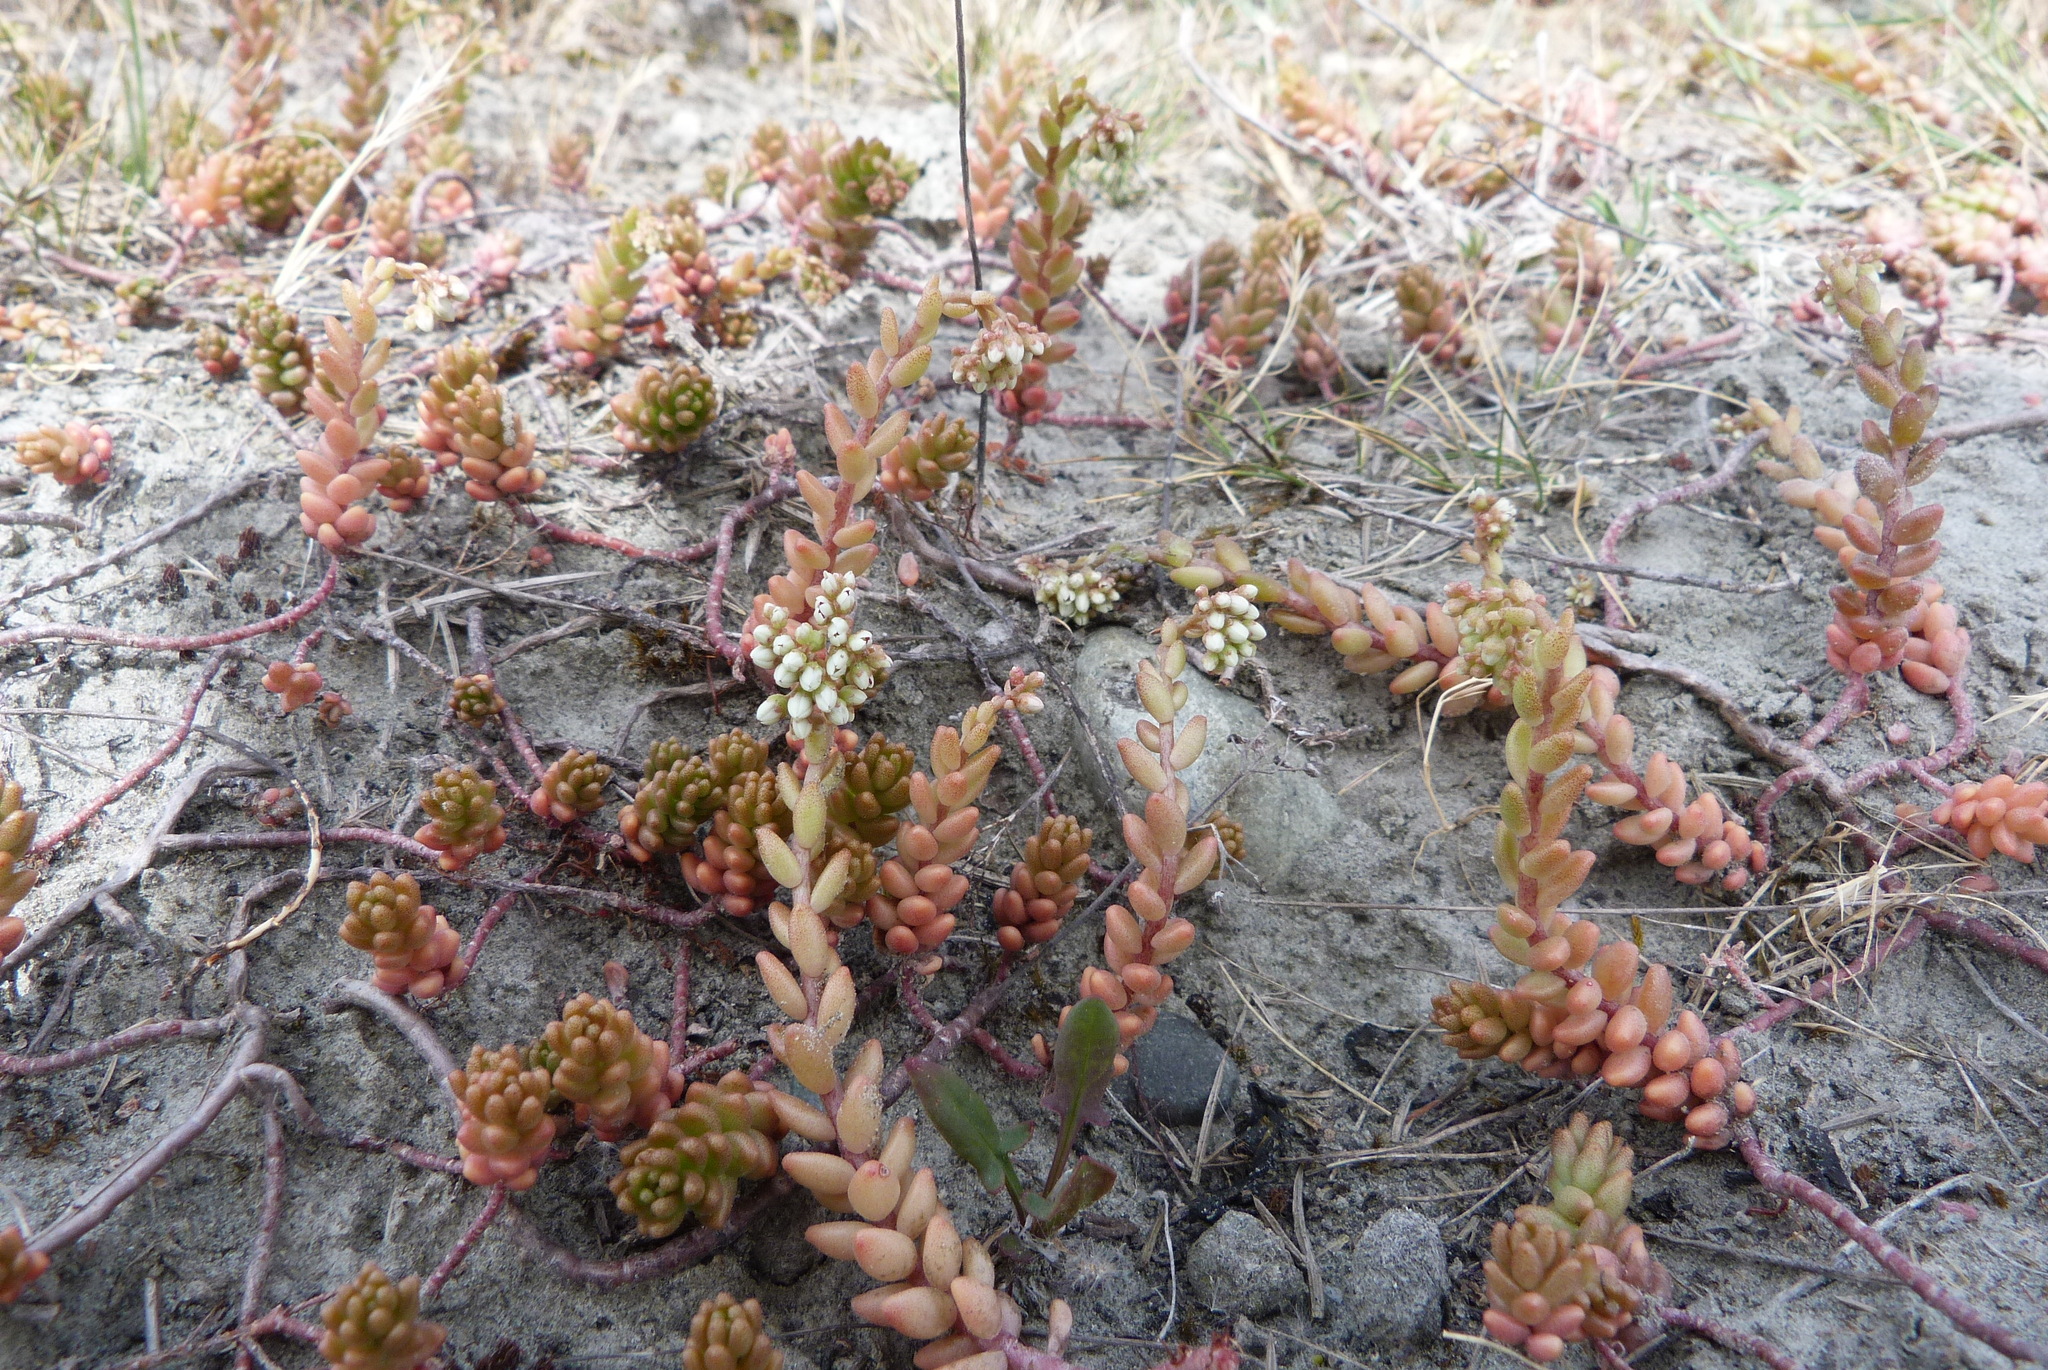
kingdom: Plantae
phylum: Tracheophyta
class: Magnoliopsida
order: Saxifragales
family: Crassulaceae
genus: Sedum
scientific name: Sedum album
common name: White stonecrop
